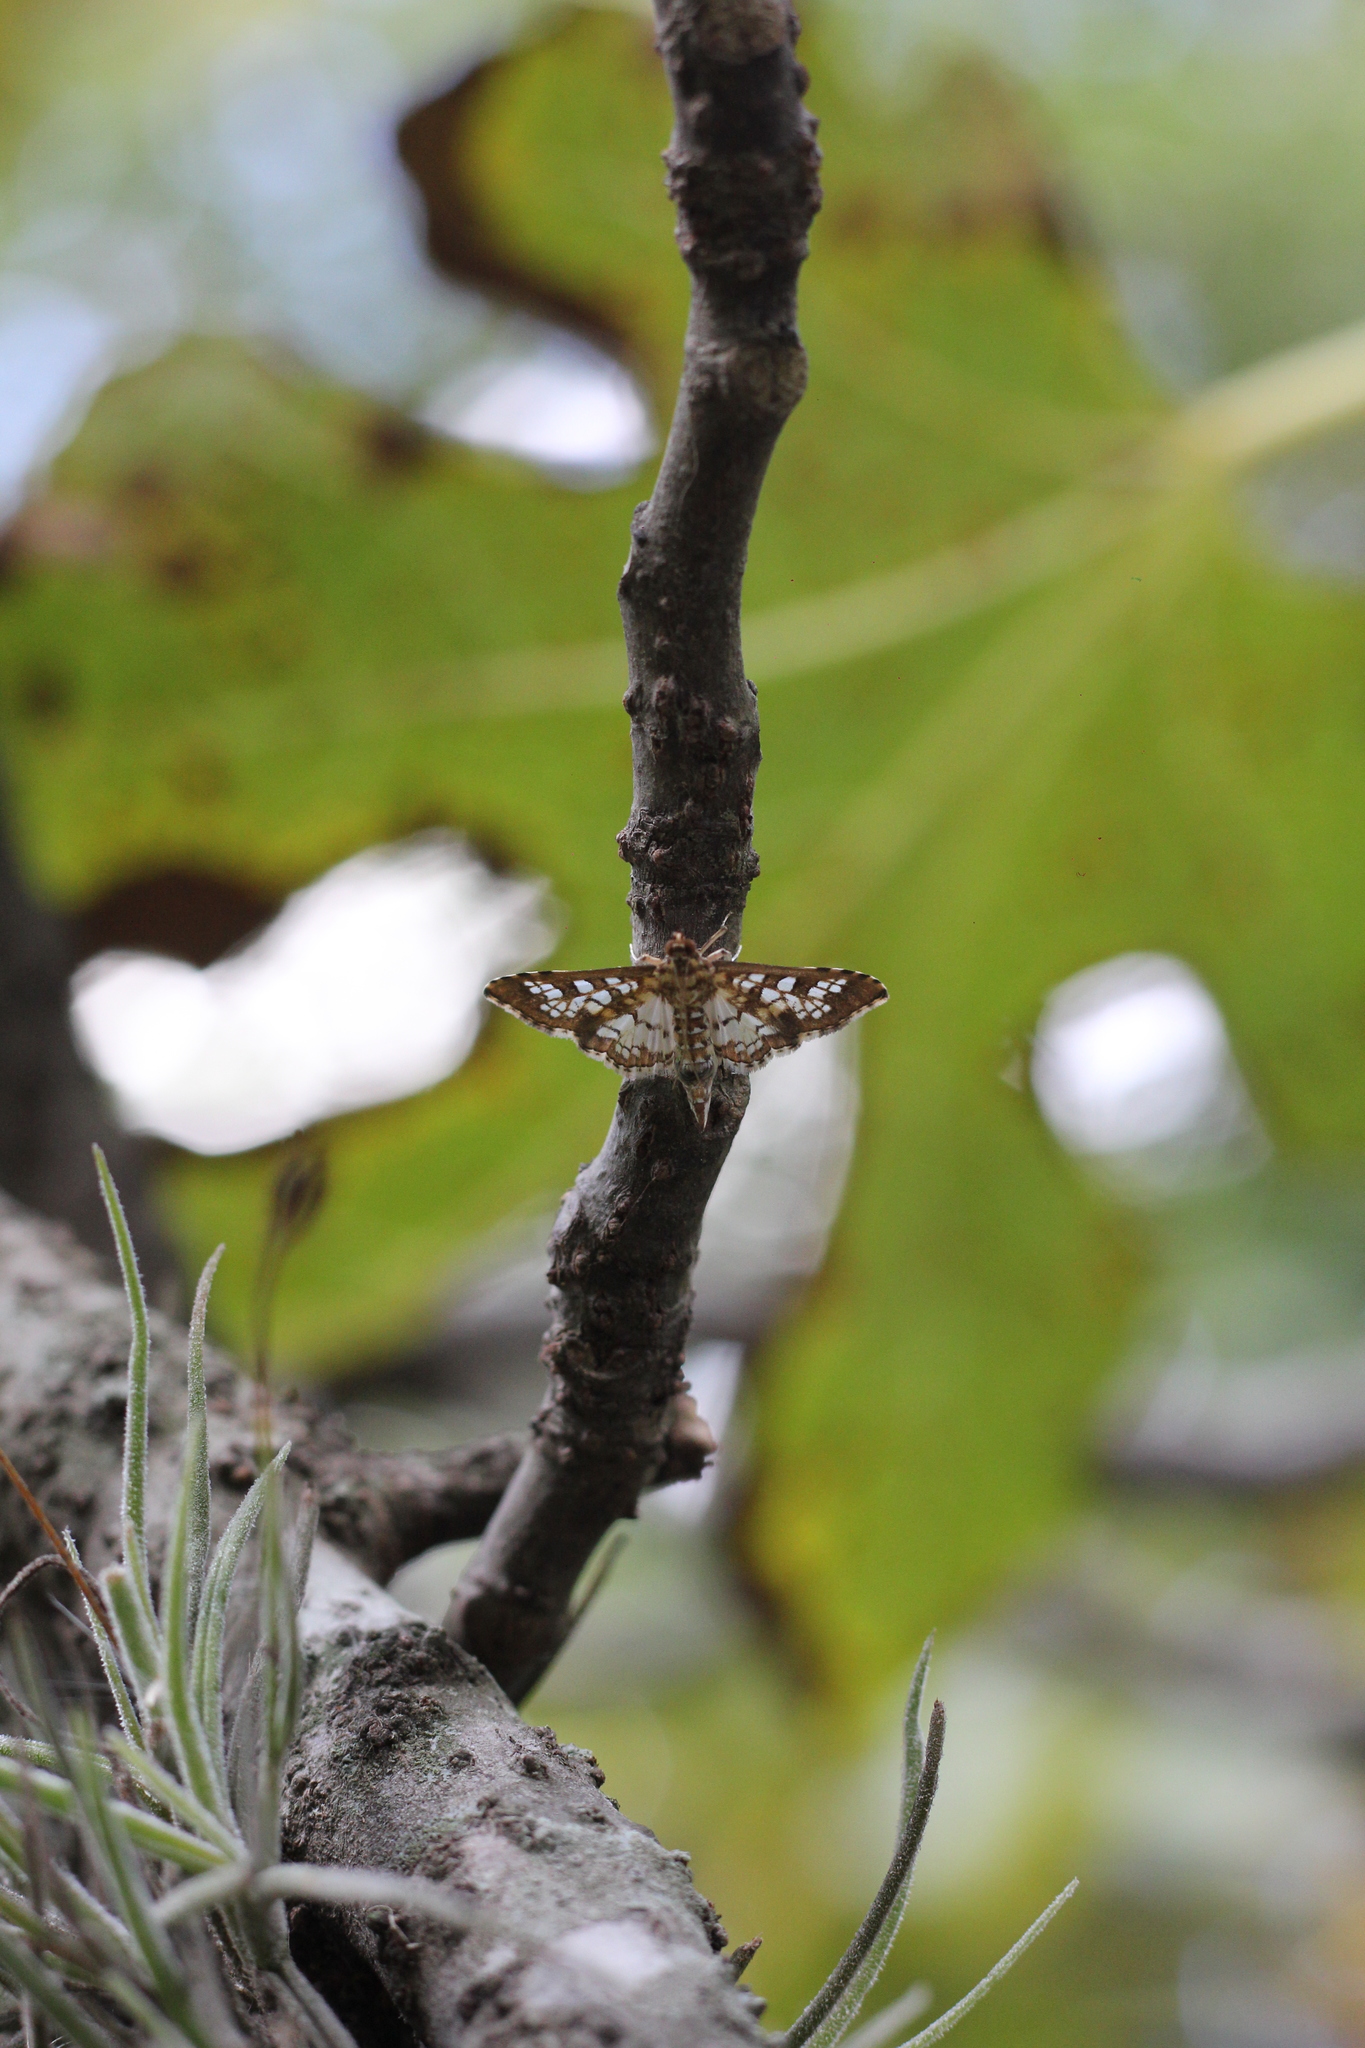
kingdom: Animalia
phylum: Arthropoda
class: Insecta
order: Lepidoptera
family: Crambidae
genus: Samea
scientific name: Samea ecclesialis
